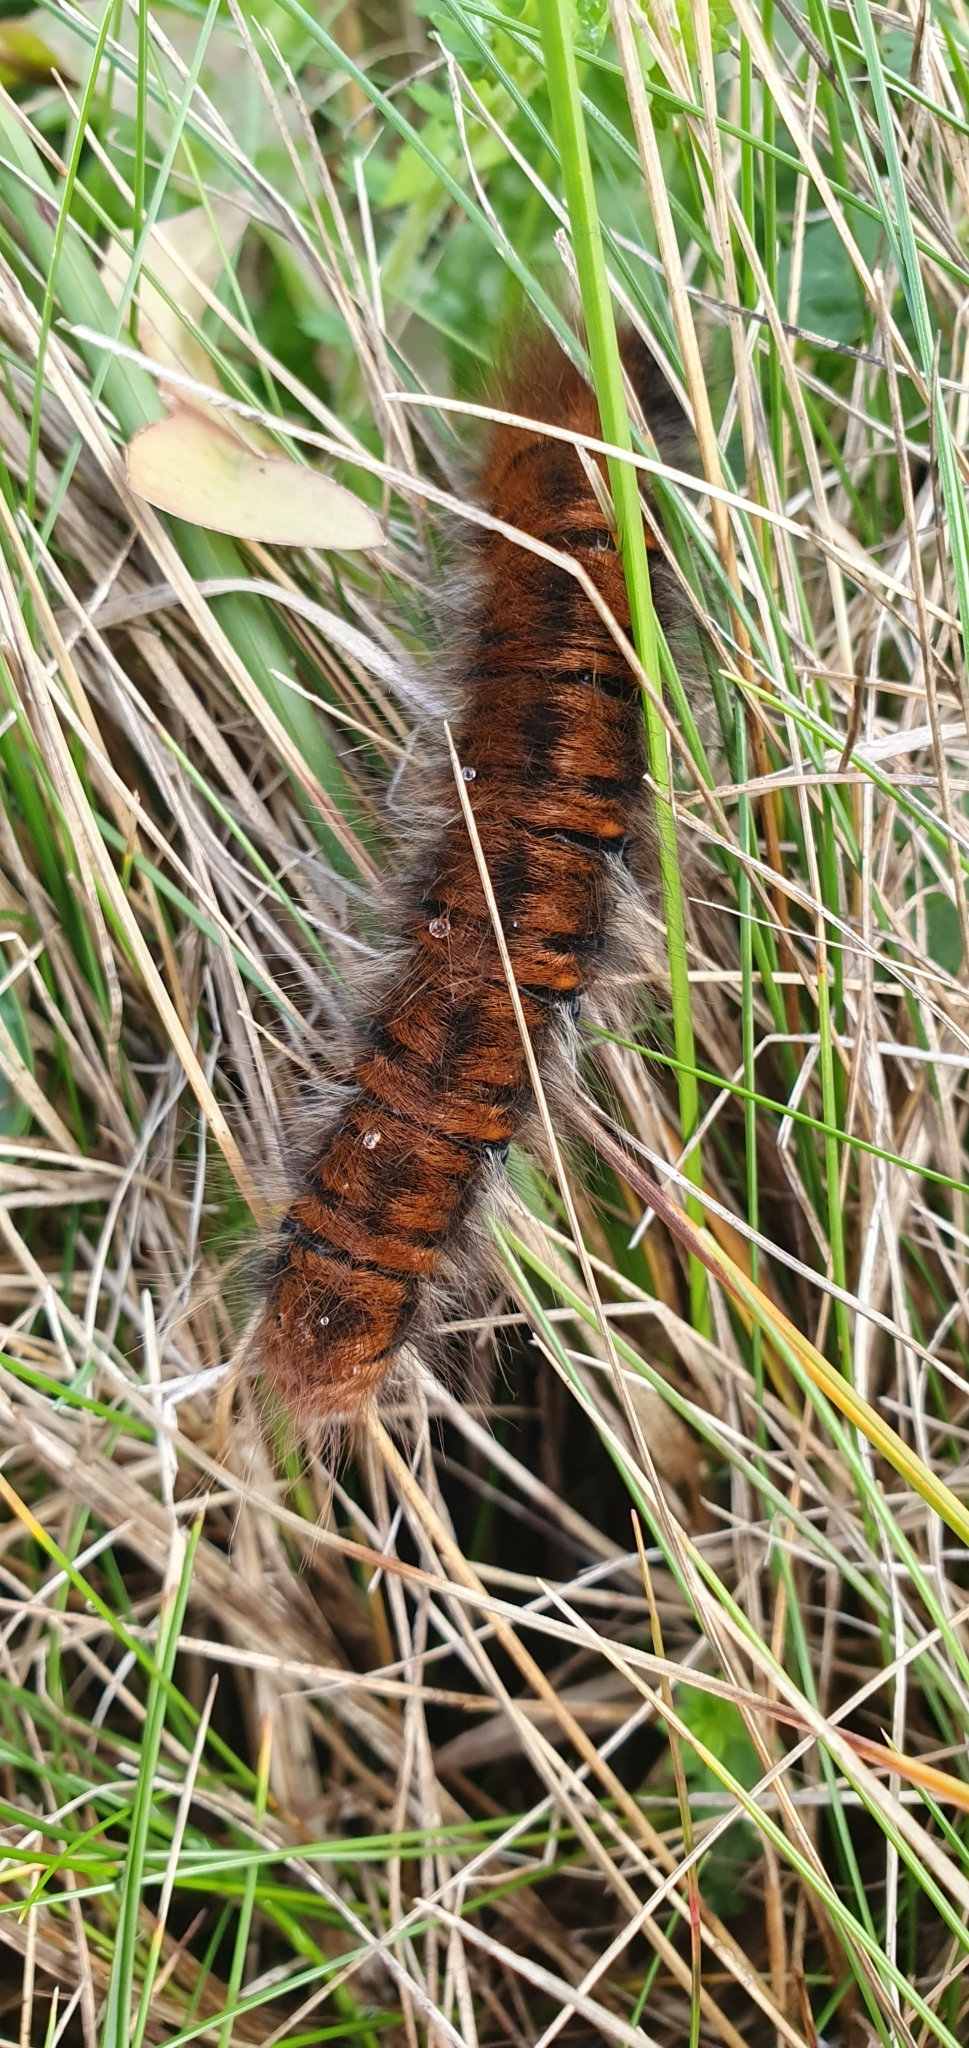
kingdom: Animalia
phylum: Arthropoda
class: Insecta
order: Lepidoptera
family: Lasiocampidae
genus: Macrothylacia
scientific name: Macrothylacia rubi
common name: Fox moth
